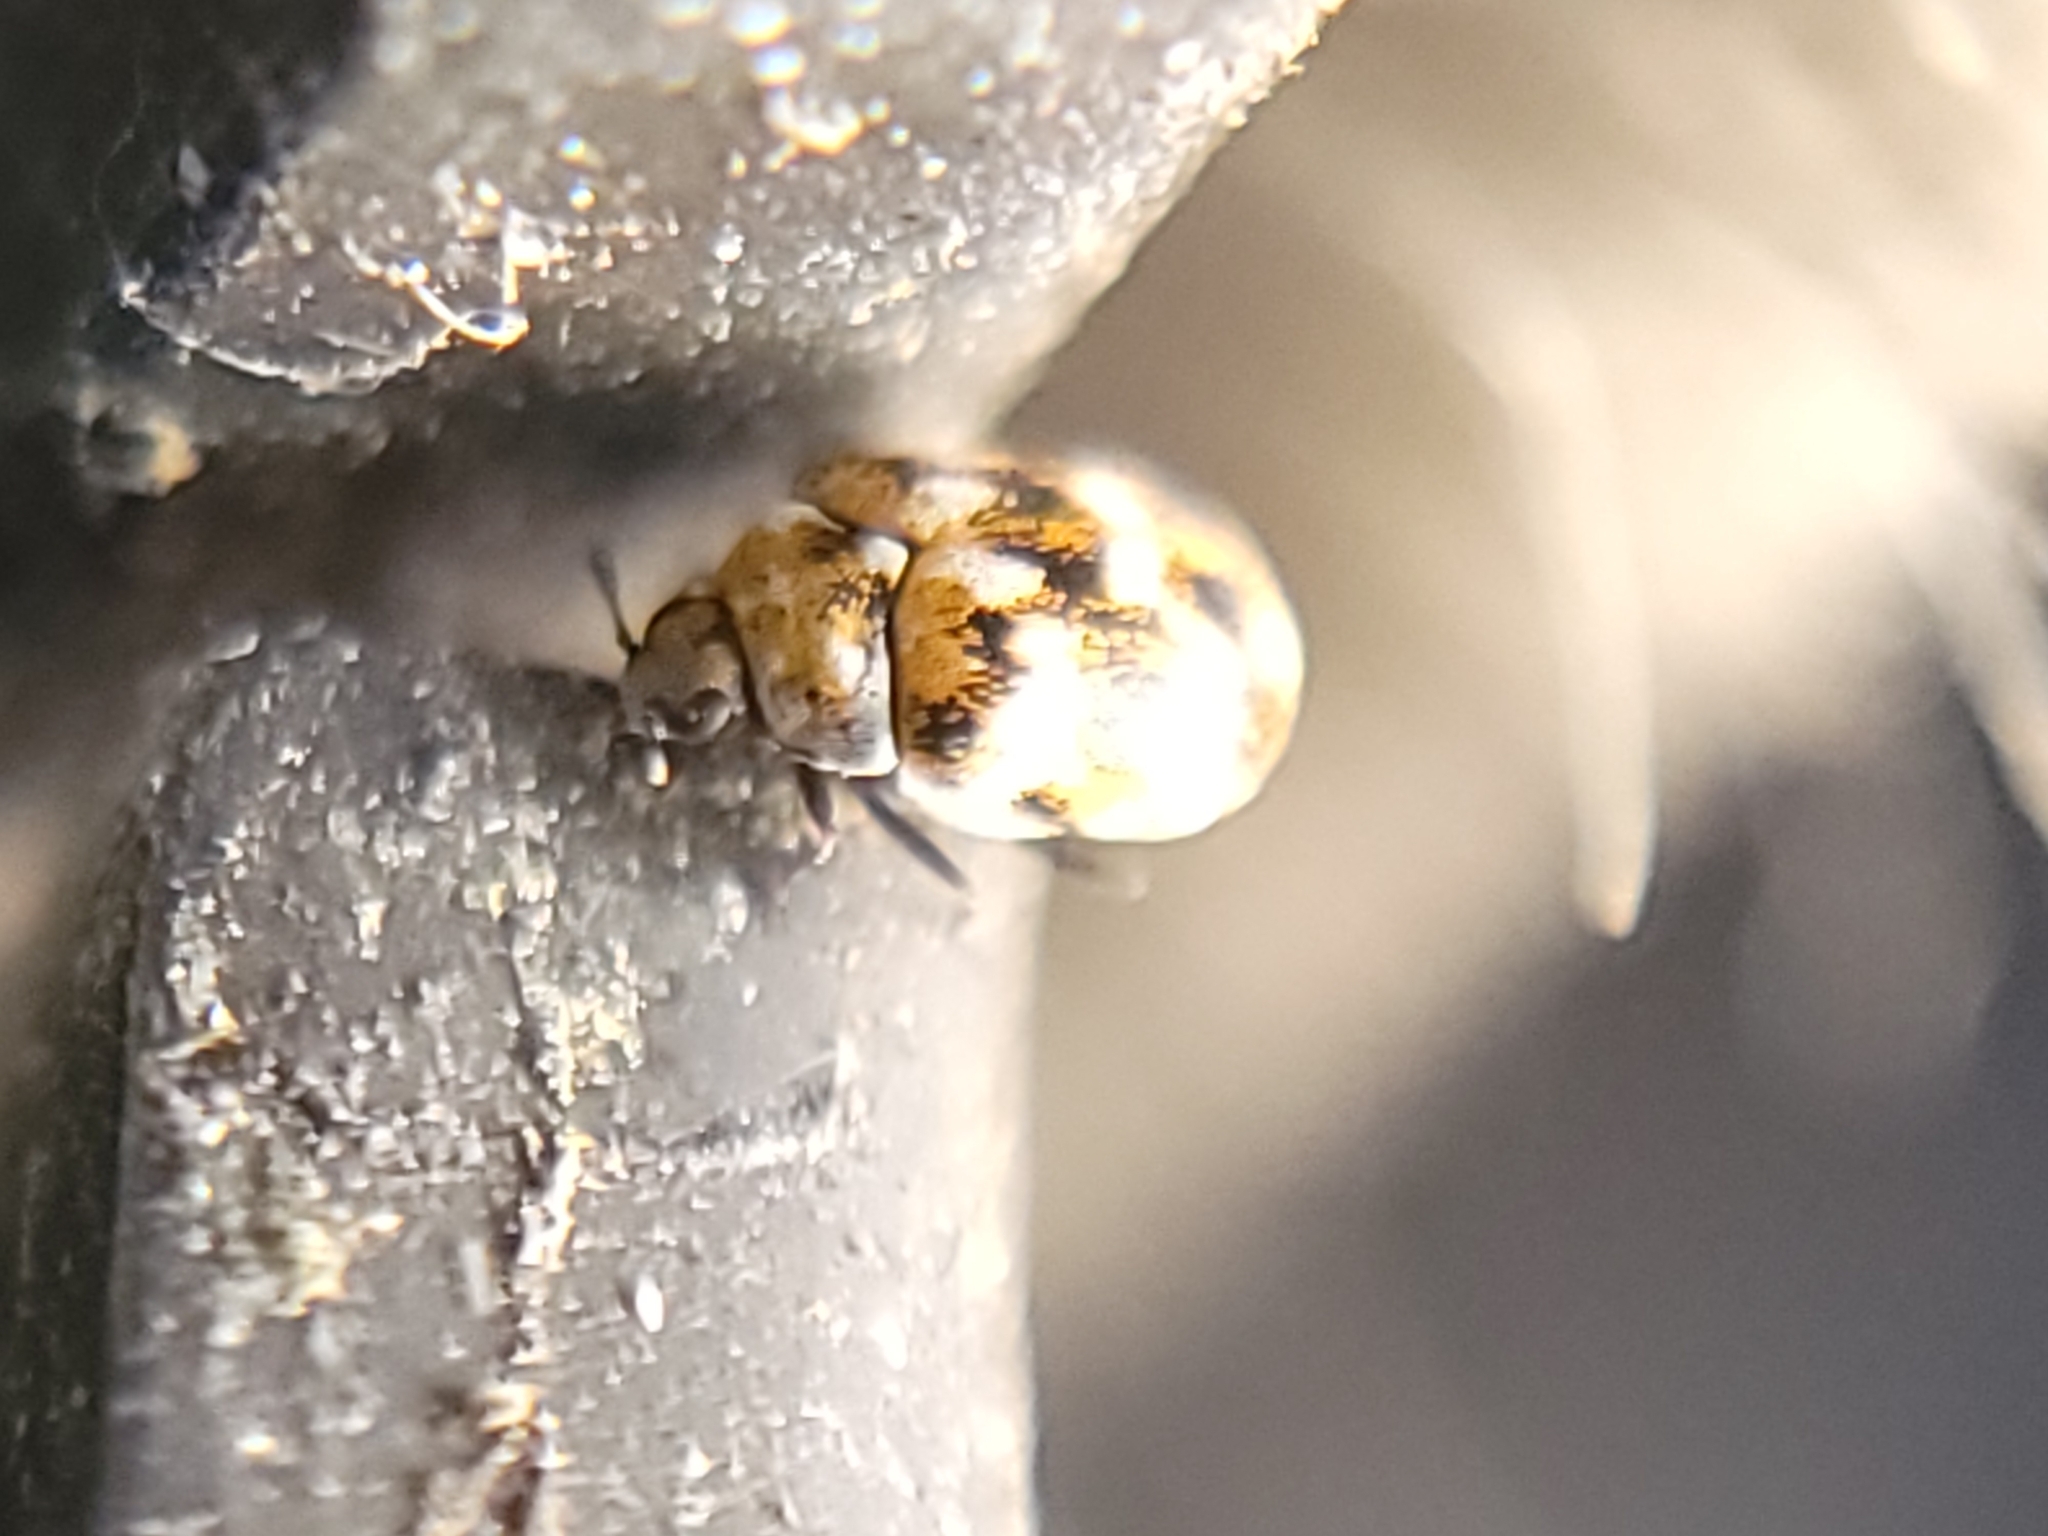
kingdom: Animalia
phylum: Arthropoda
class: Insecta
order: Coleoptera
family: Dermestidae
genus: Anthrenus
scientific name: Anthrenus verbasci
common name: Varied carpet beetle
